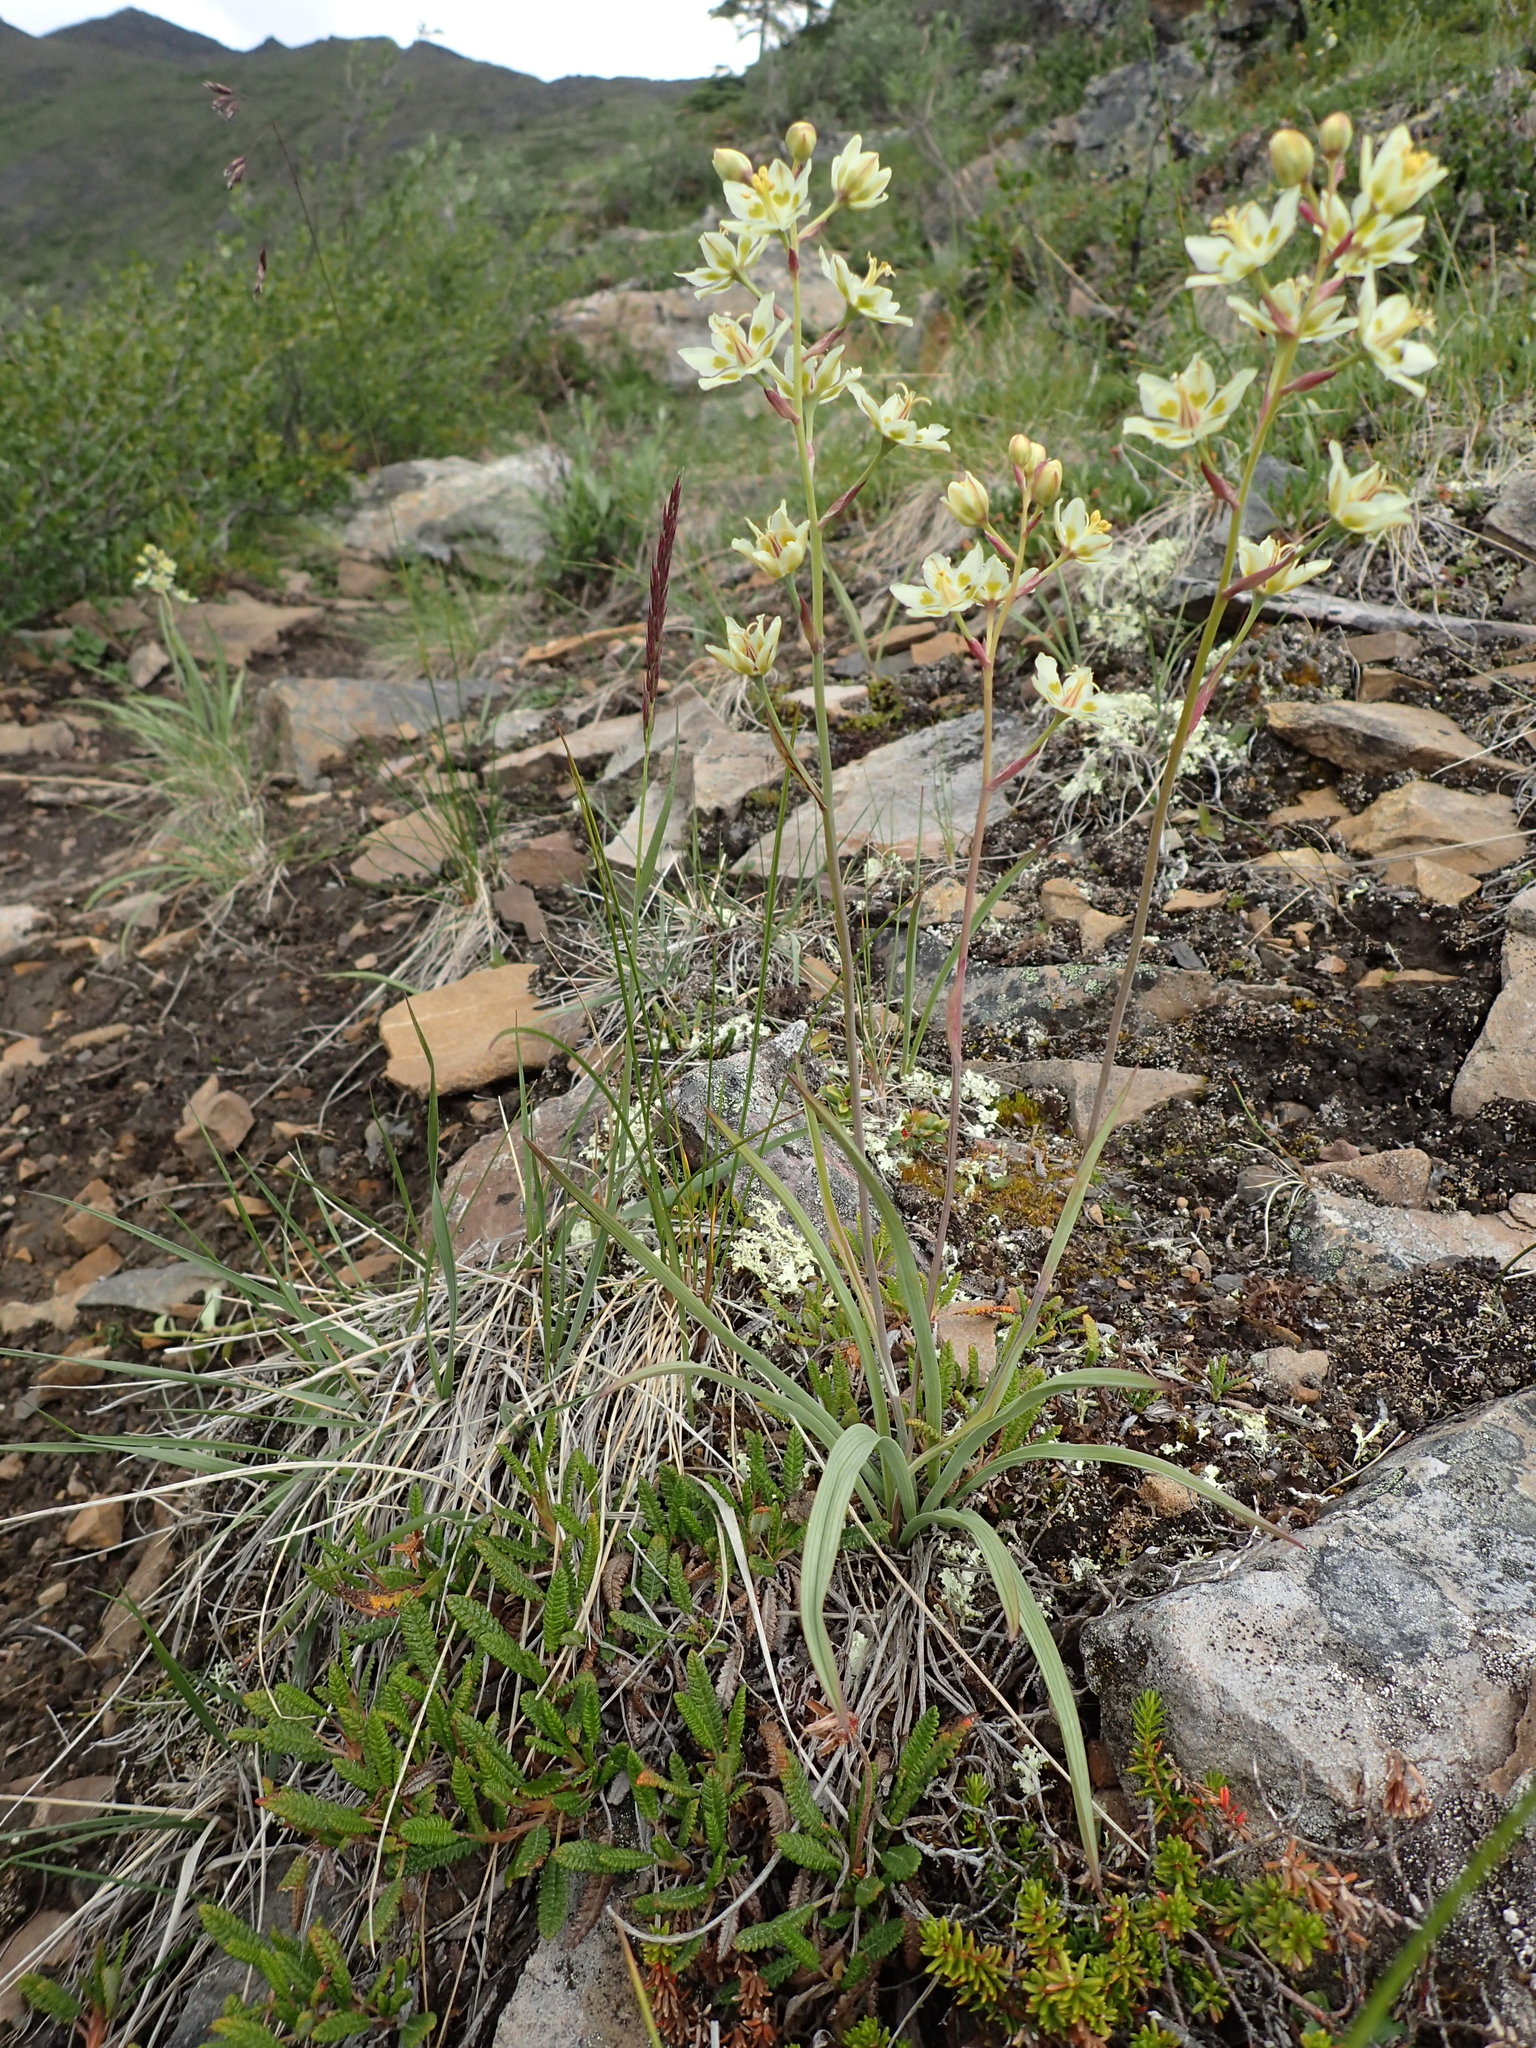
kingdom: Plantae
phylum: Tracheophyta
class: Liliopsida
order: Liliales
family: Melanthiaceae
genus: Anticlea
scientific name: Anticlea elegans
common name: Mountain death camas
